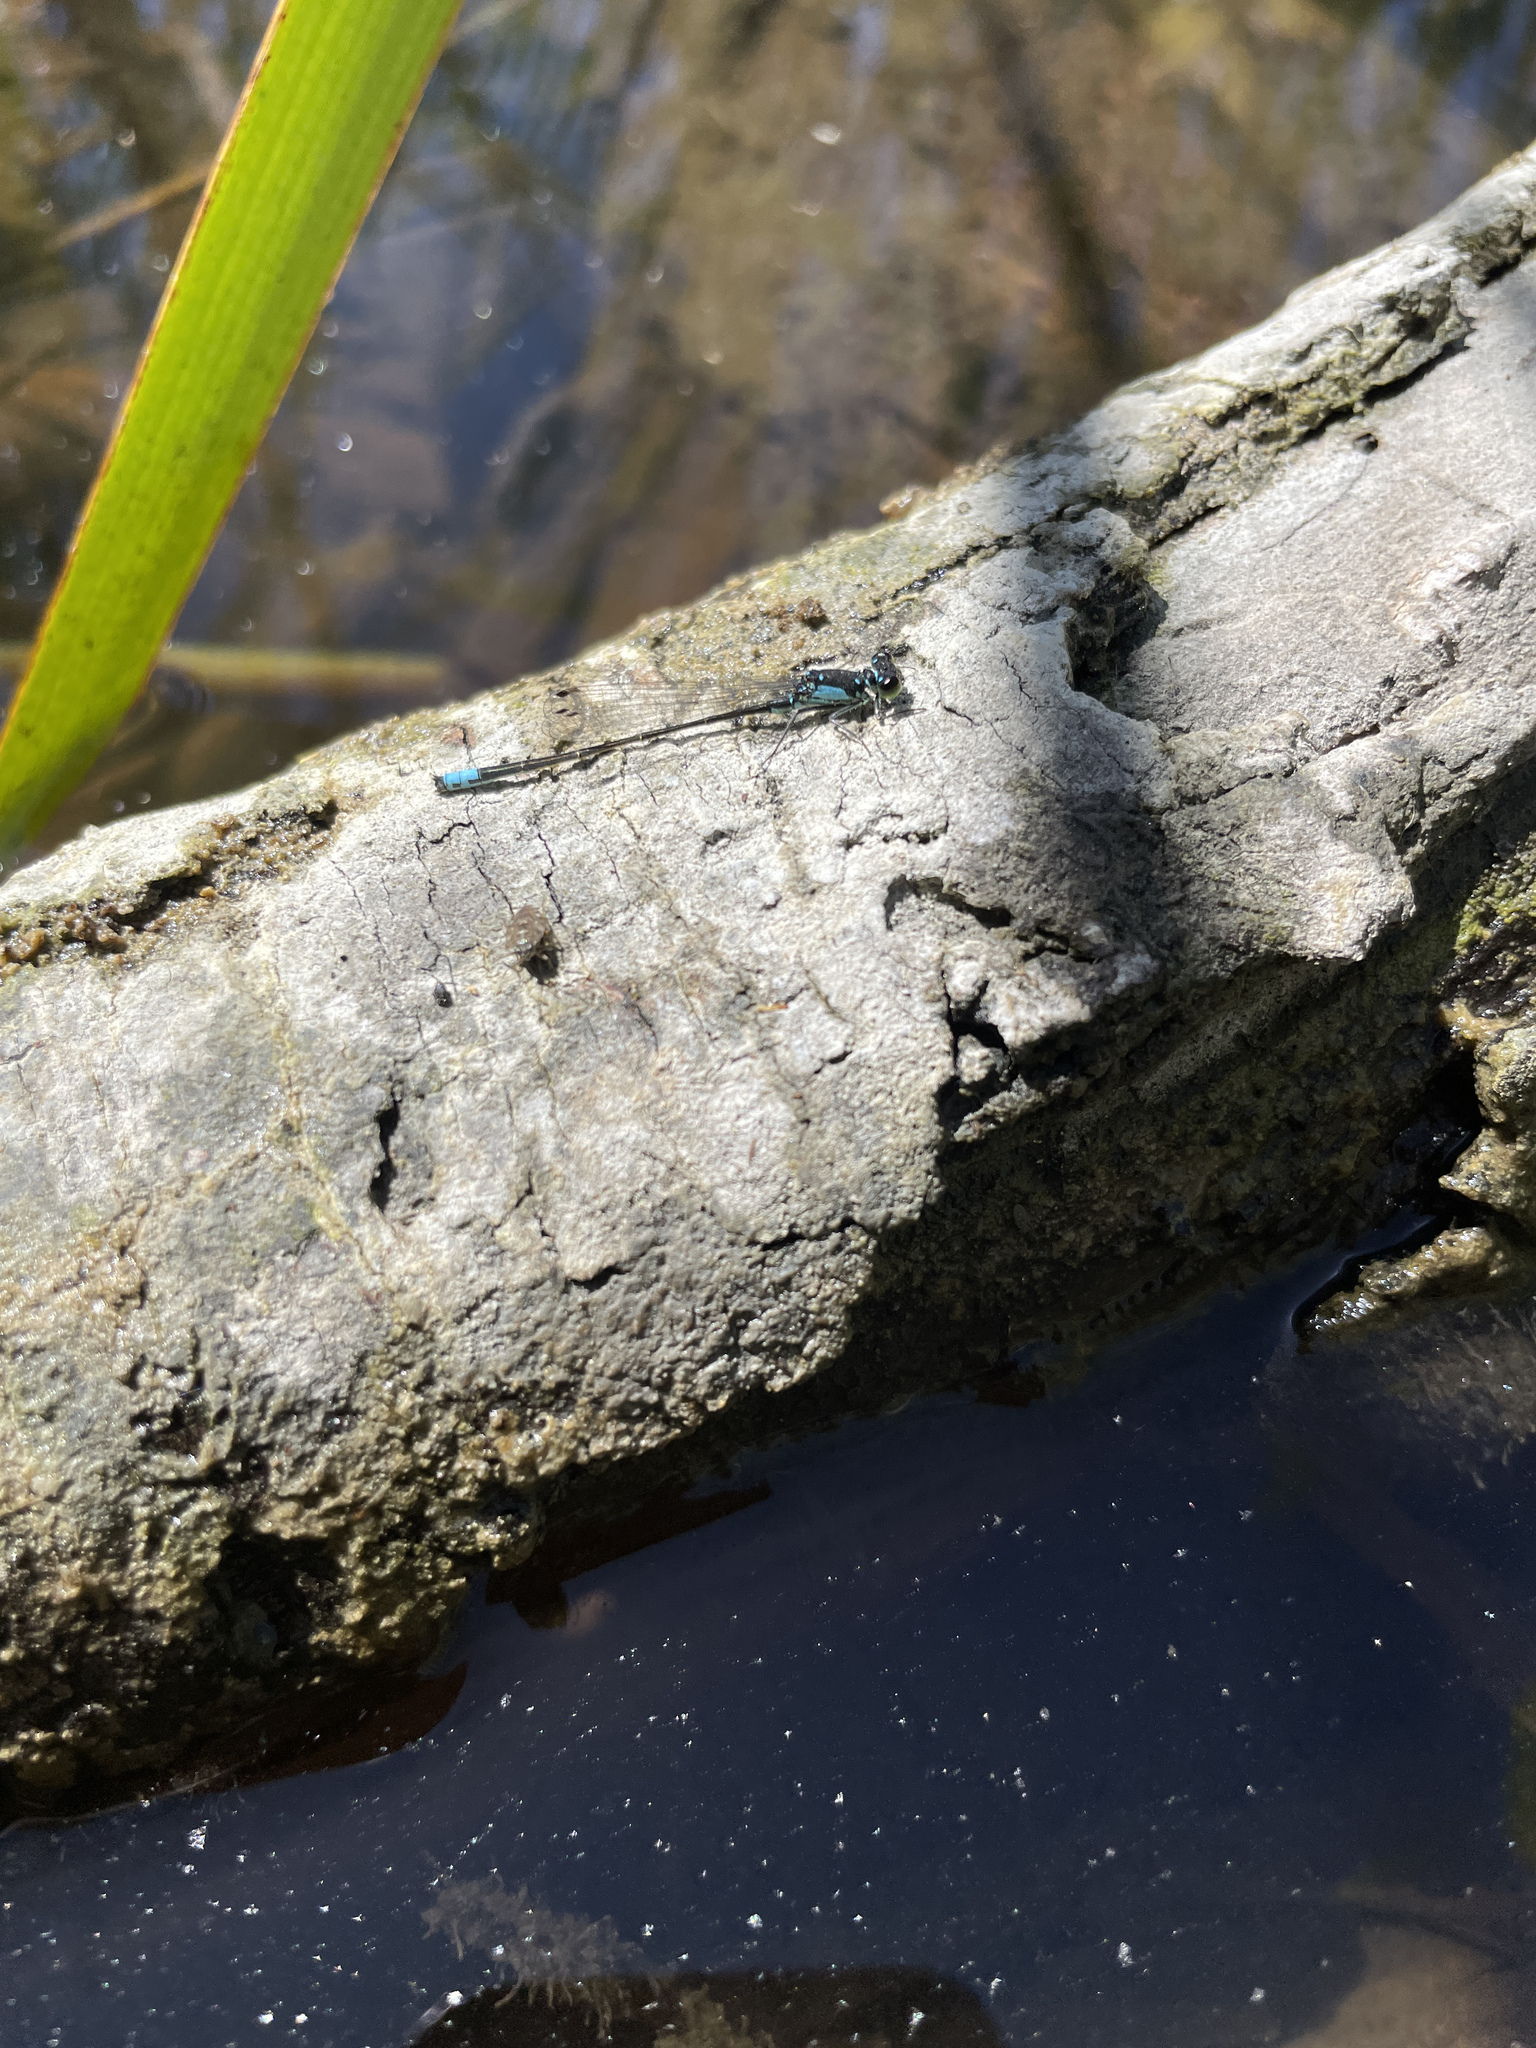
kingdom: Animalia
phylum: Arthropoda
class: Insecta
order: Odonata
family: Coenagrionidae
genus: Ischnura
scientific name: Ischnura cervula
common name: Pacific forktail
